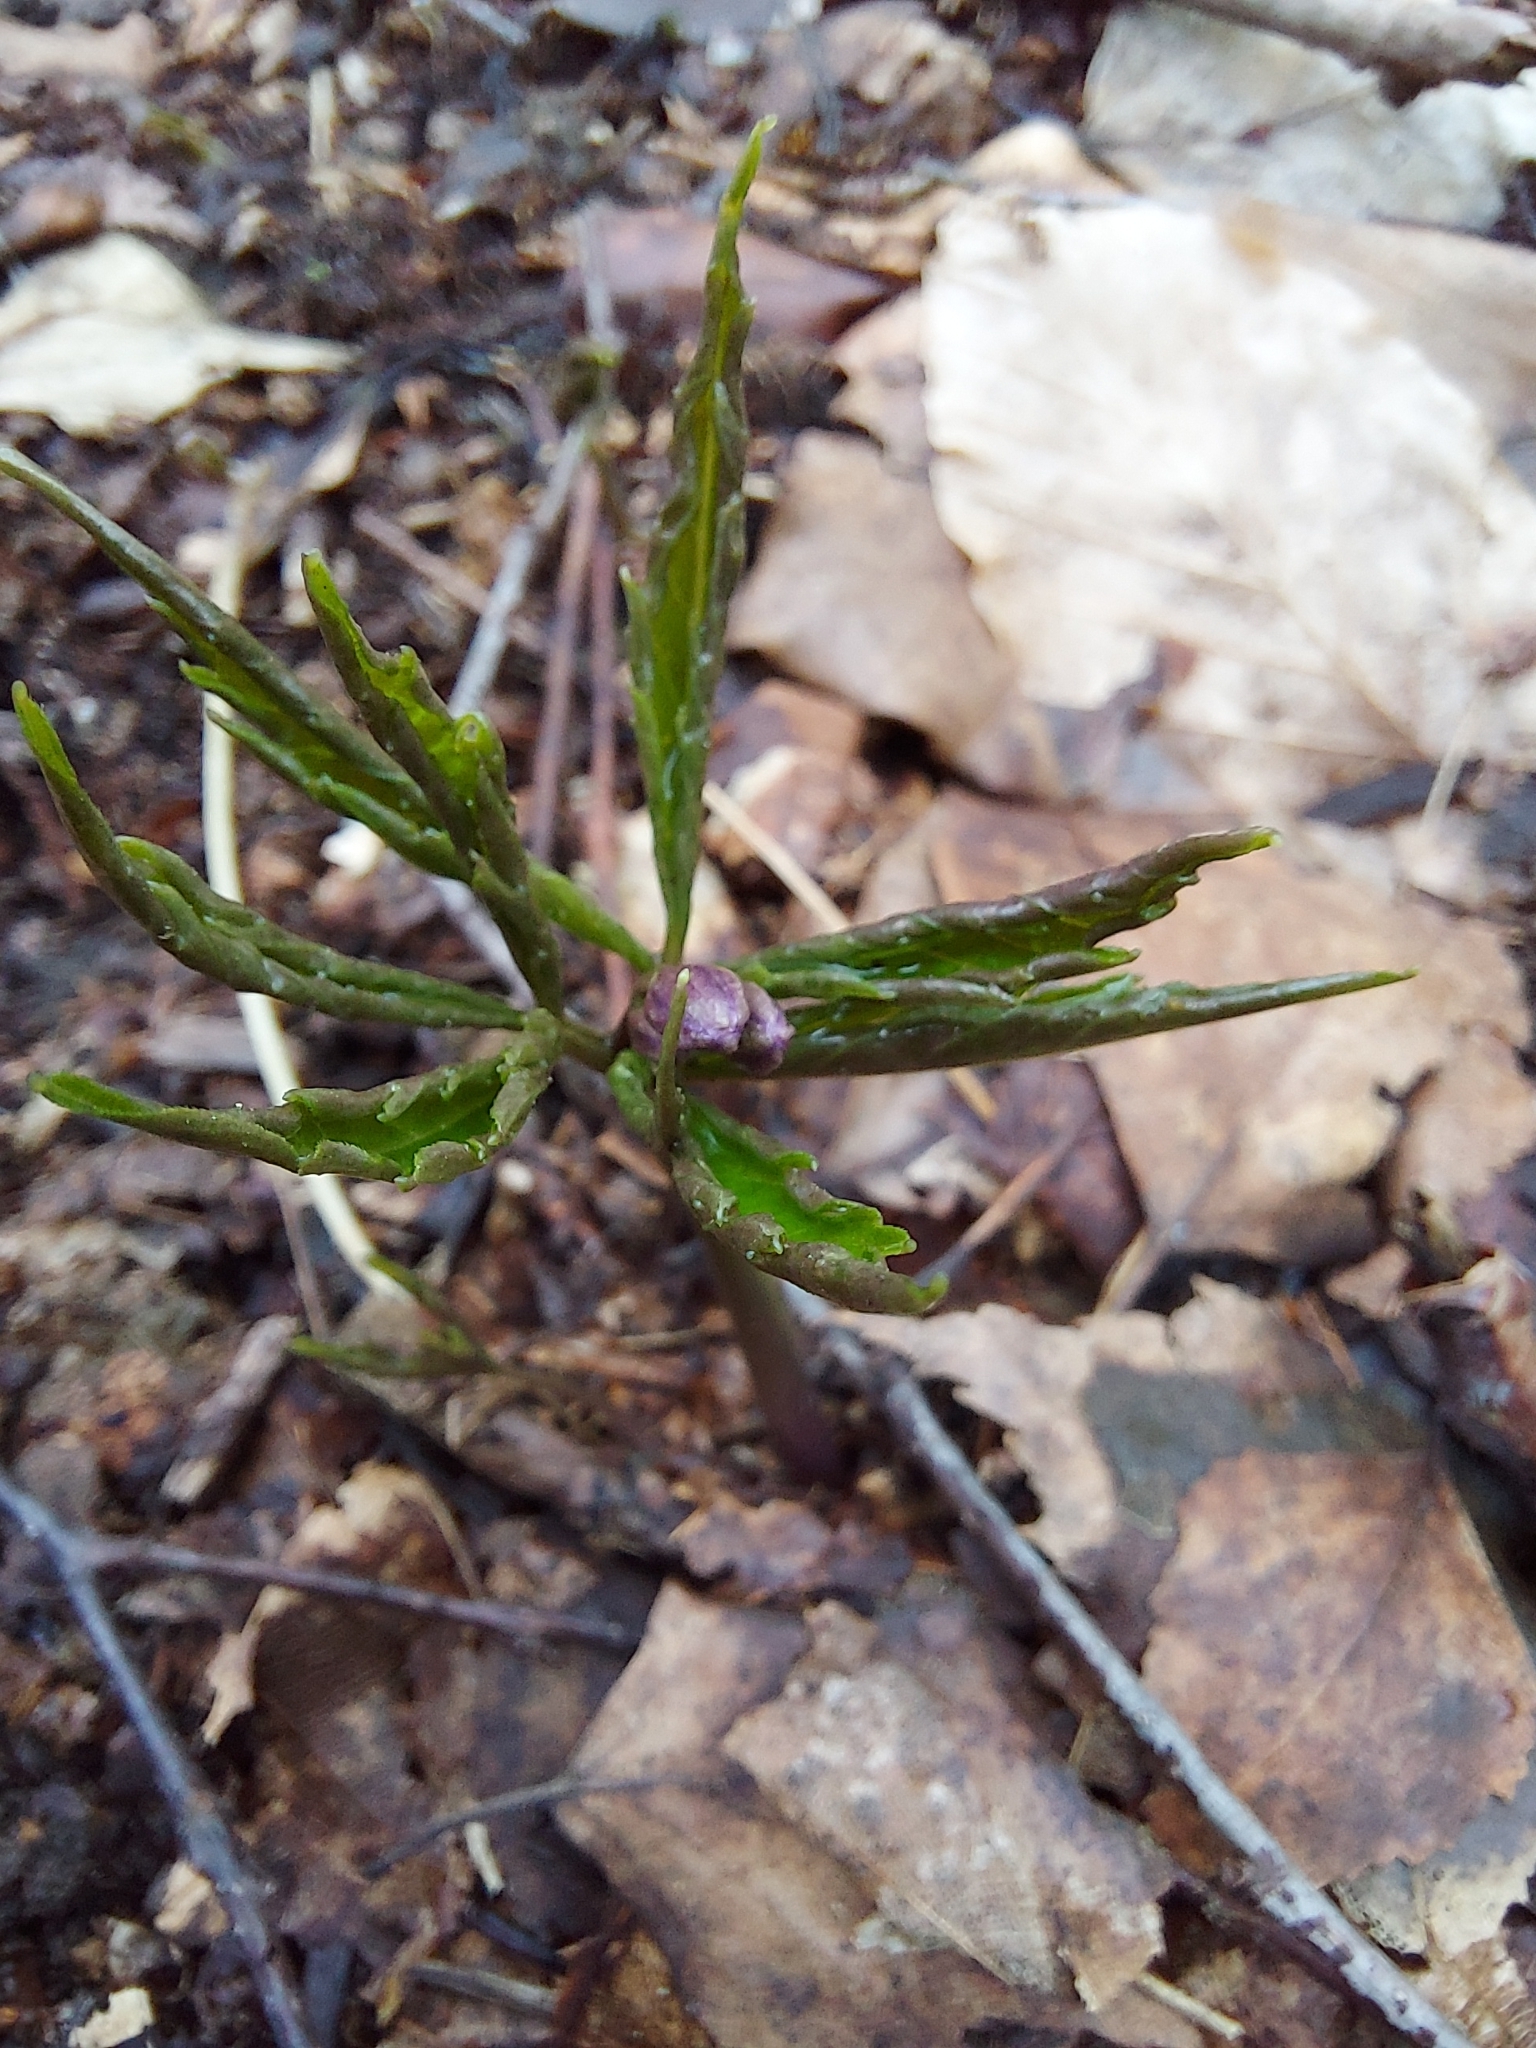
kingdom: Plantae
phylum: Tracheophyta
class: Magnoliopsida
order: Brassicales
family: Brassicaceae
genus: Cardamine
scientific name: Cardamine glanduligera
